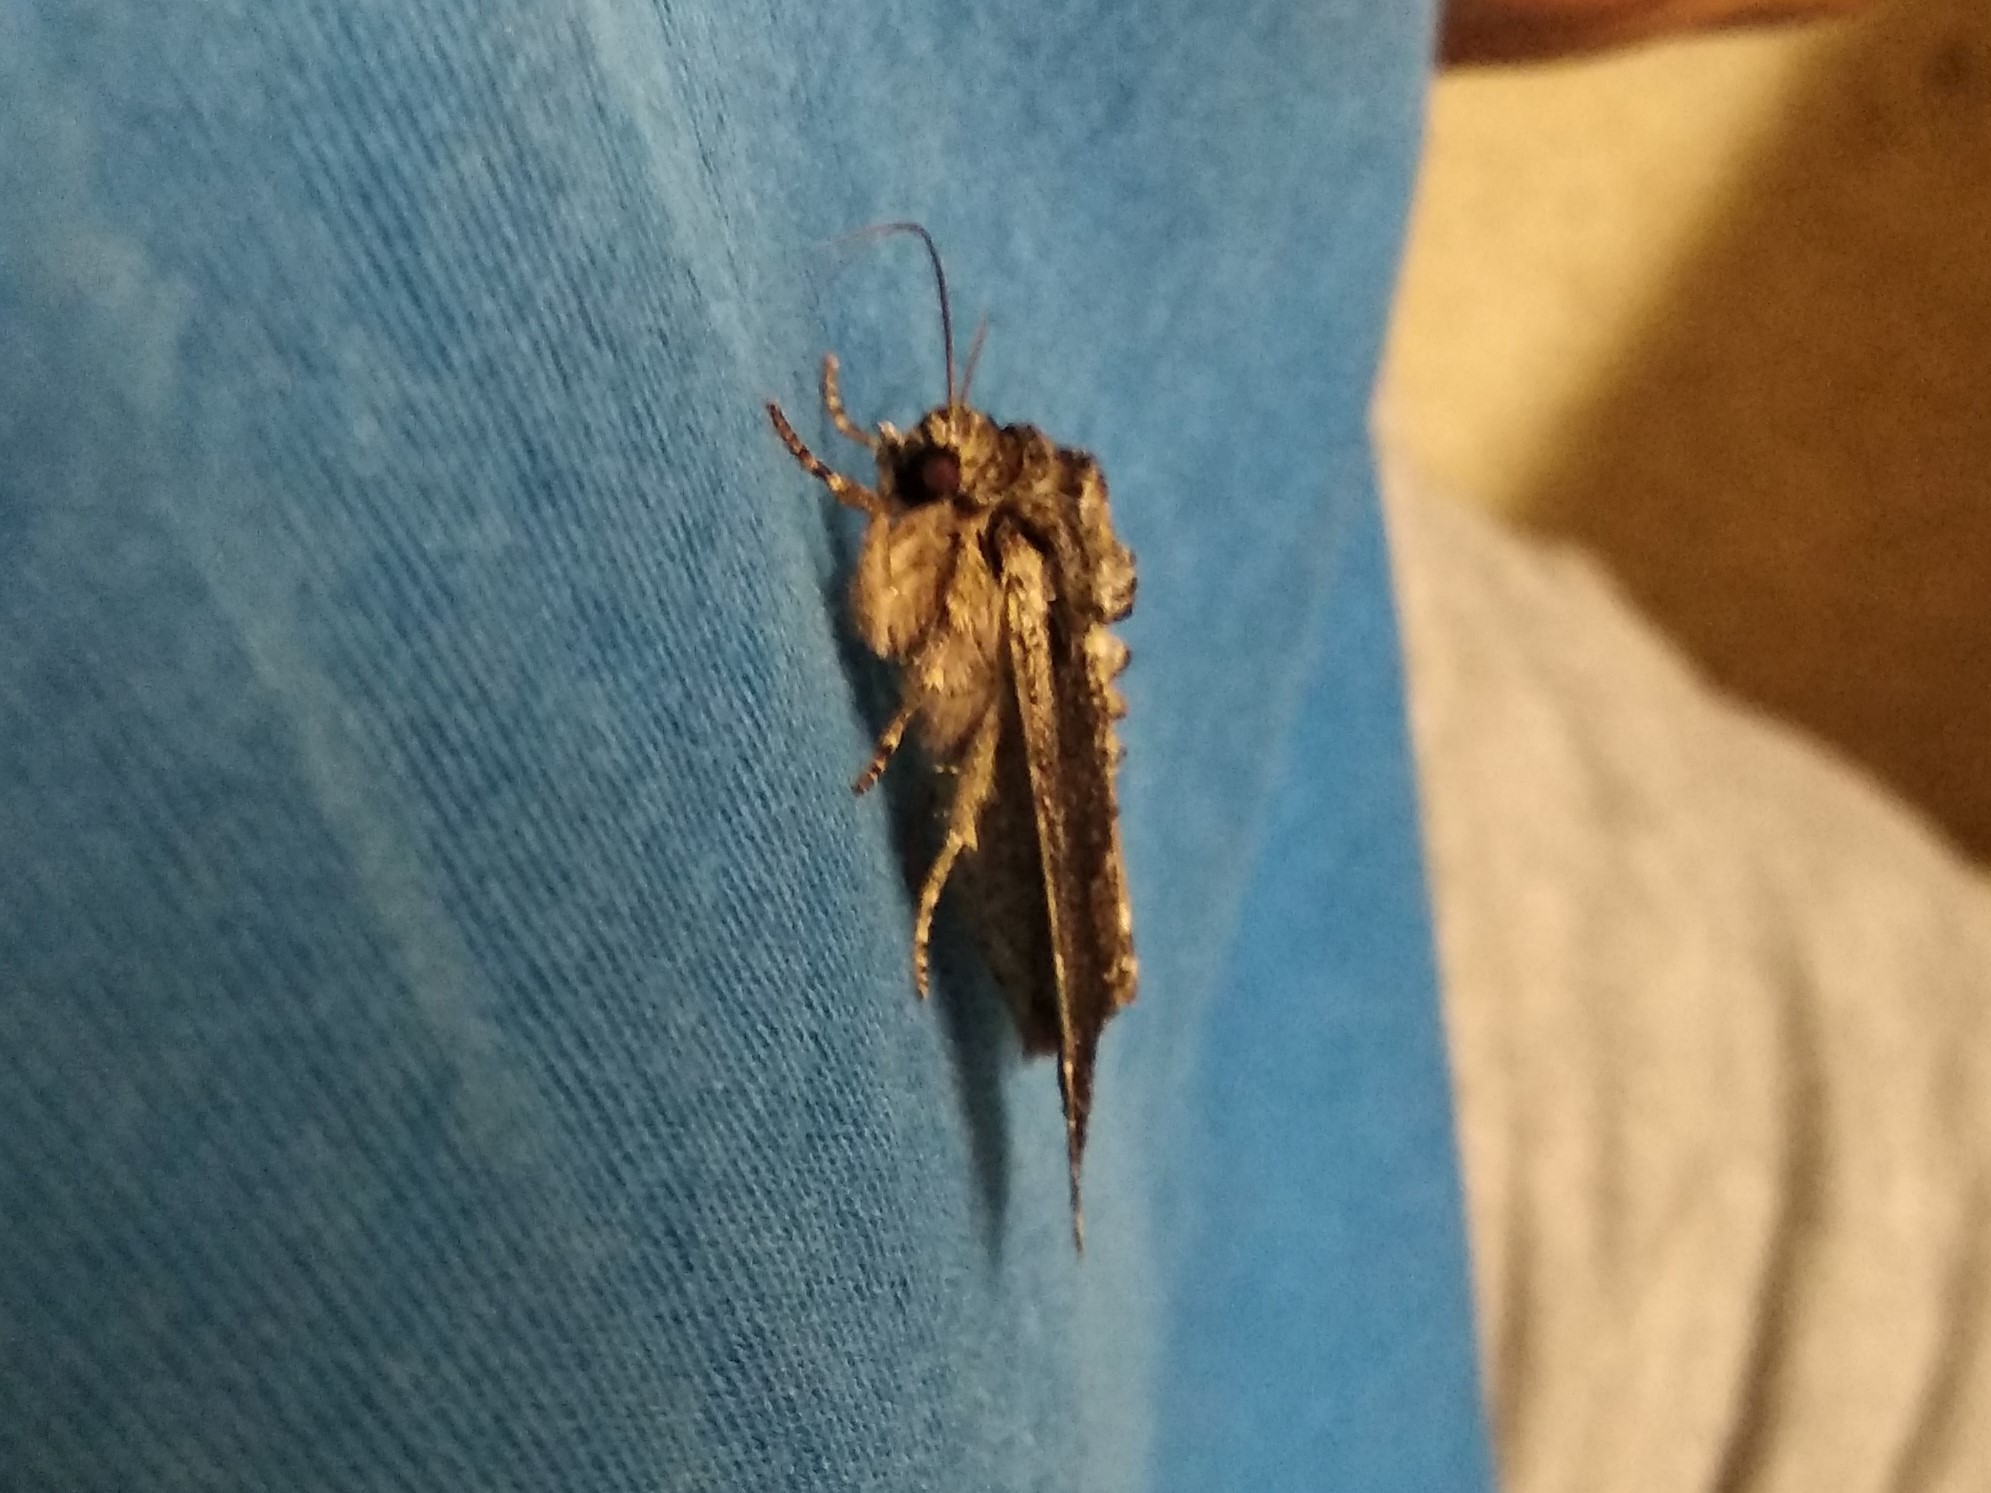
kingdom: Animalia
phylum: Arthropoda
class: Insecta
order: Lepidoptera
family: Noctuidae
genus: Apamea
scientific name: Apamea monoglypha
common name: Dark arches
